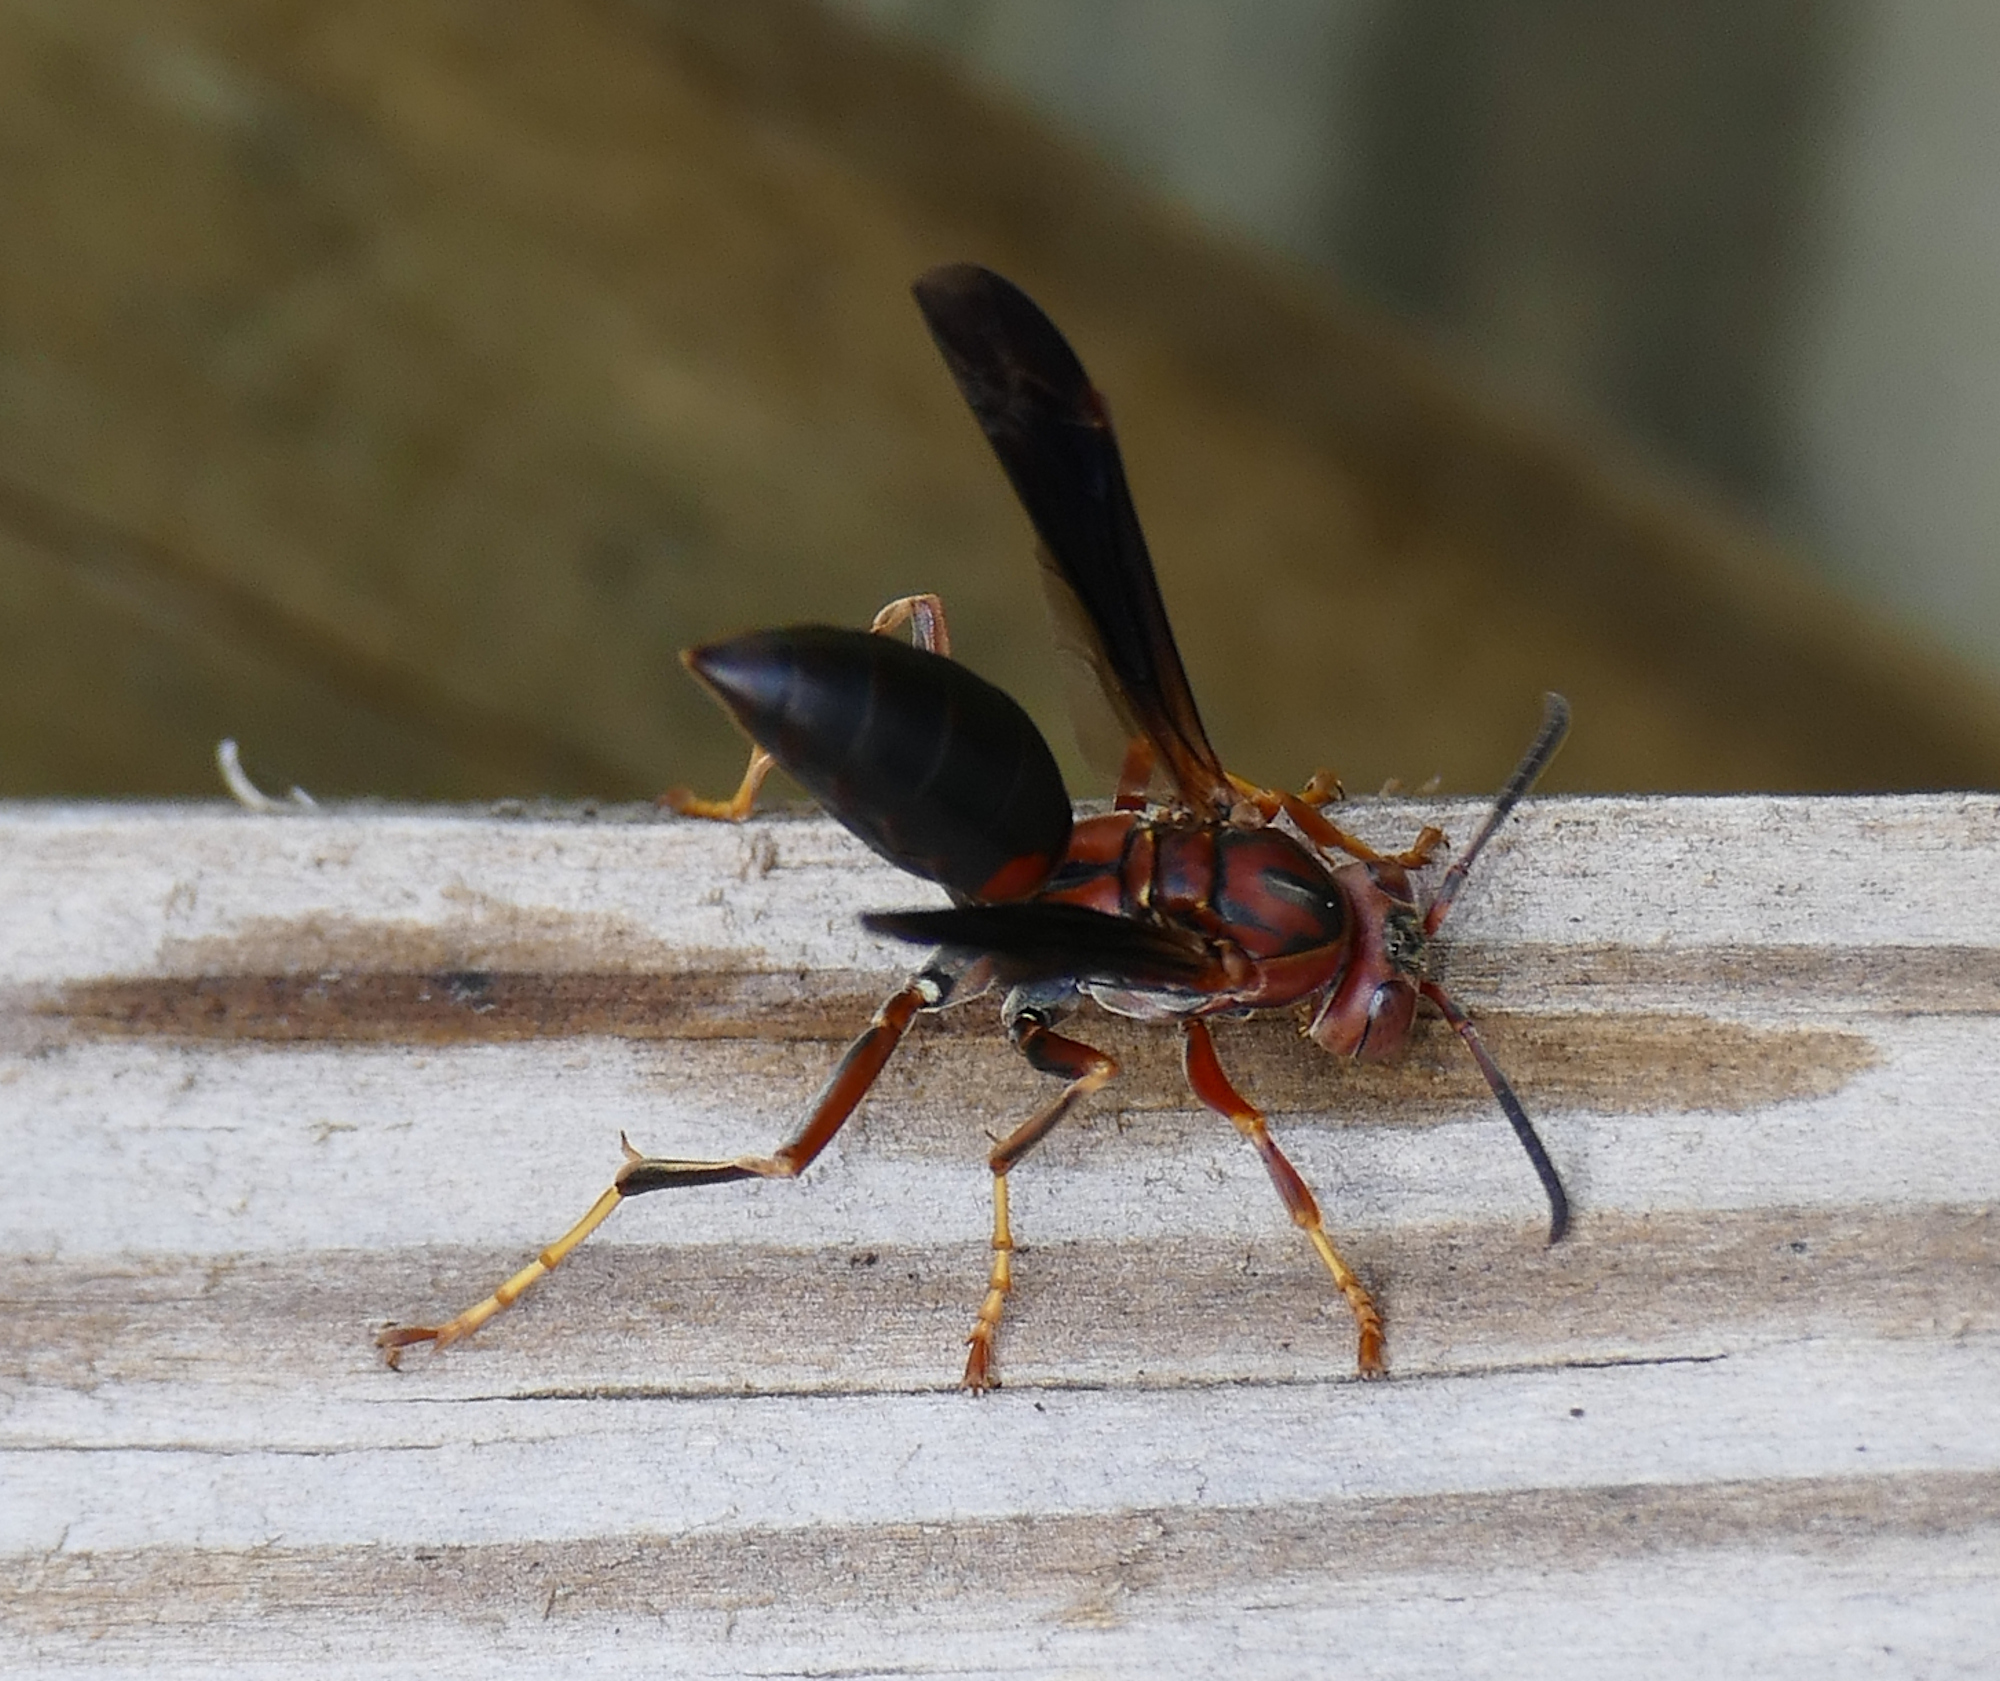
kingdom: Animalia
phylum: Arthropoda
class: Insecta
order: Hymenoptera
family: Eumenidae
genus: Polistes
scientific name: Polistes metricus
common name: Metric paper wasp
